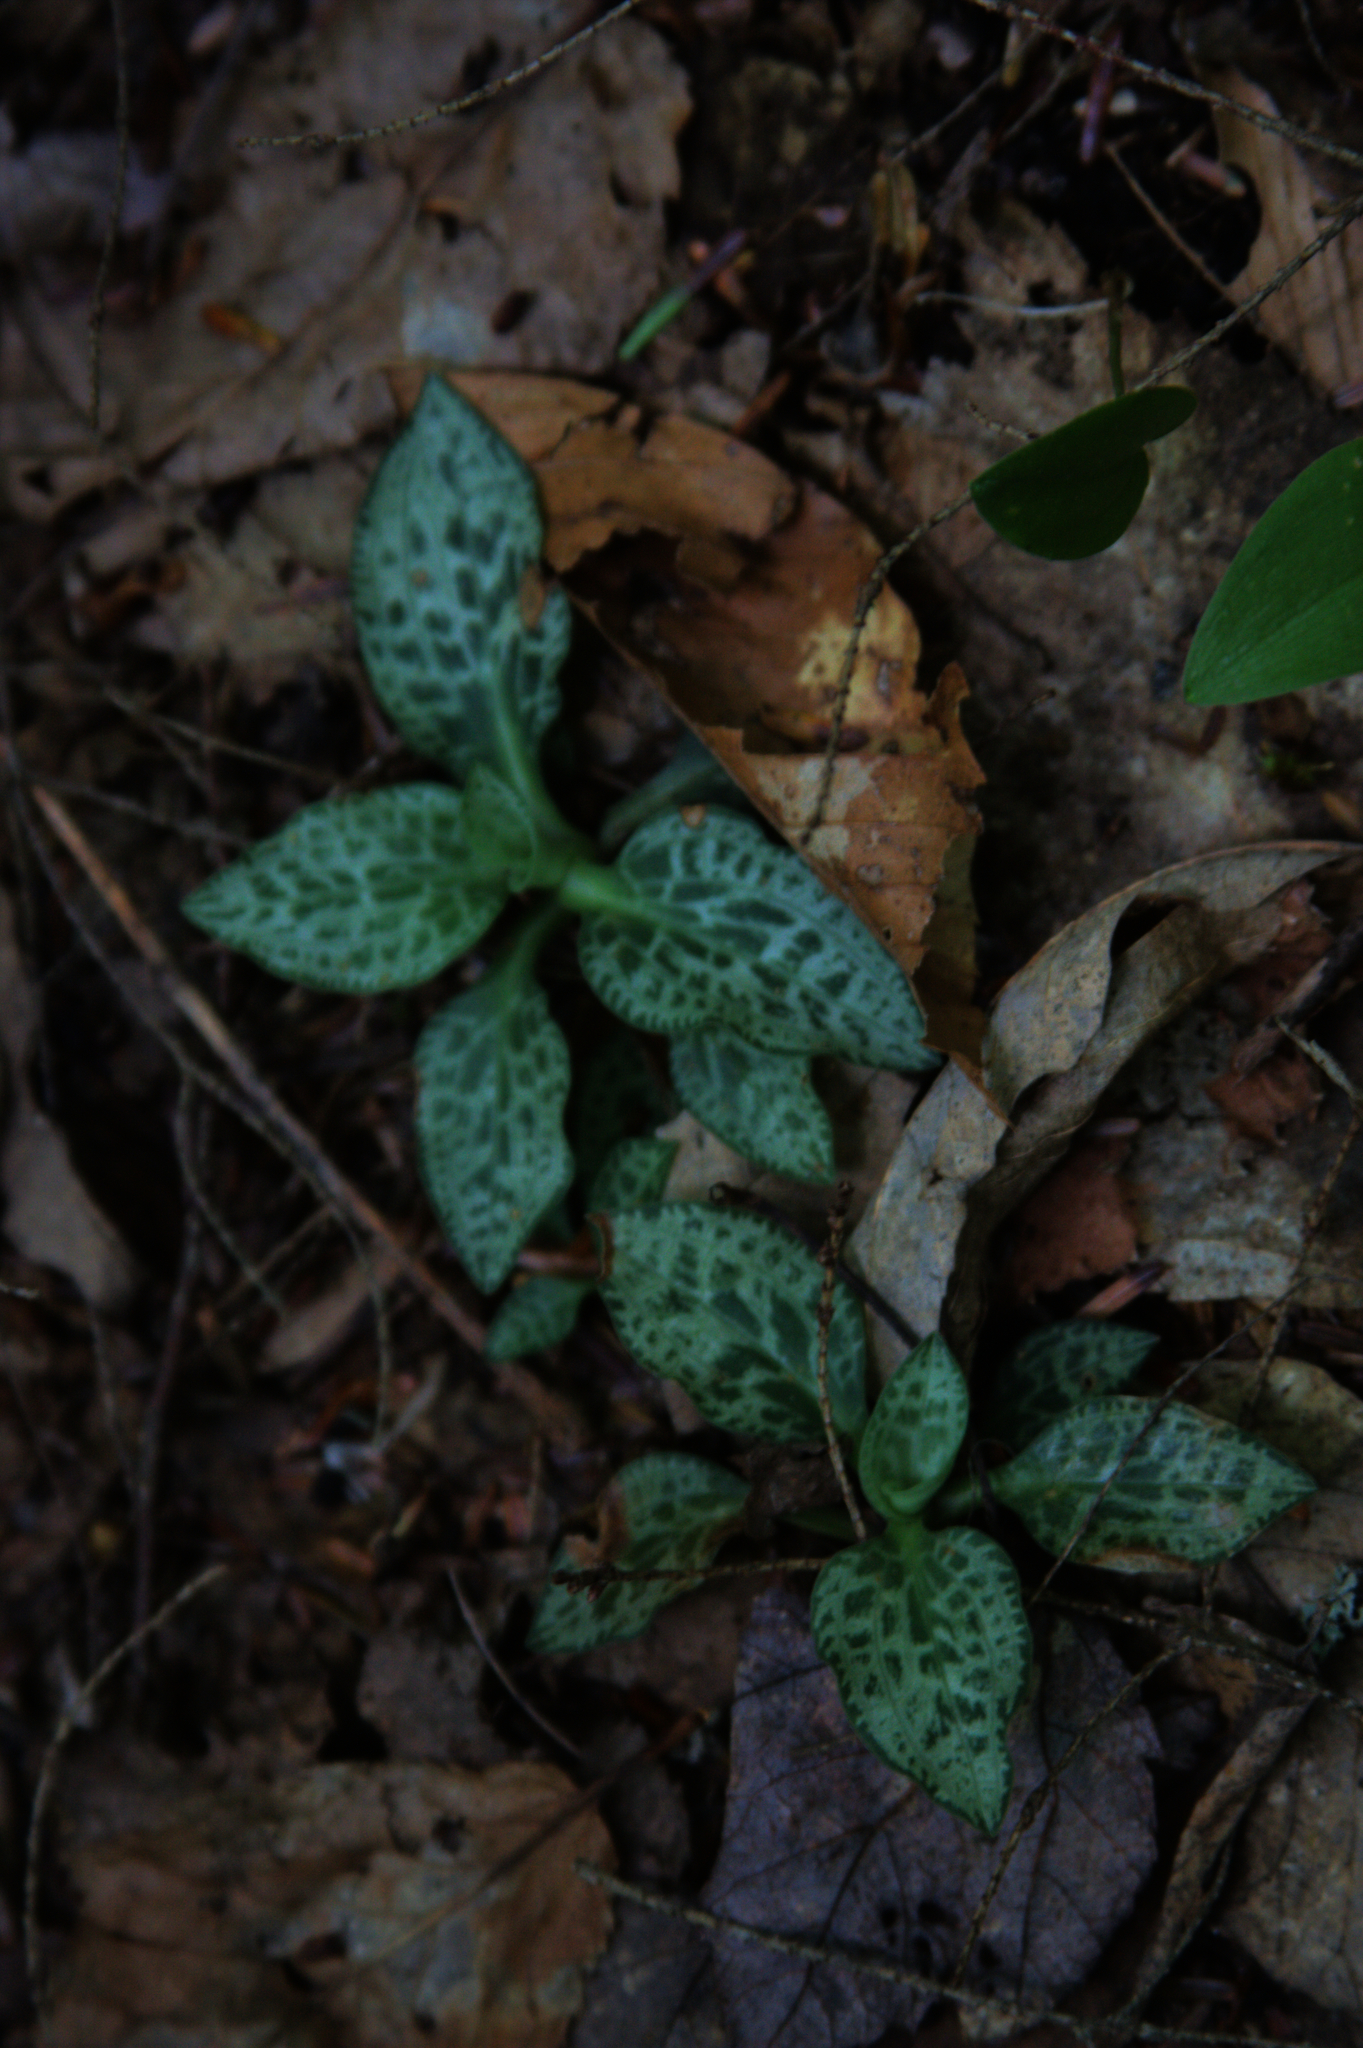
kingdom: Plantae
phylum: Tracheophyta
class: Liliopsida
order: Asparagales
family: Orchidaceae
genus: Goodyera
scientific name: Goodyera tesselata
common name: Checkered rattlesnake-plantain
